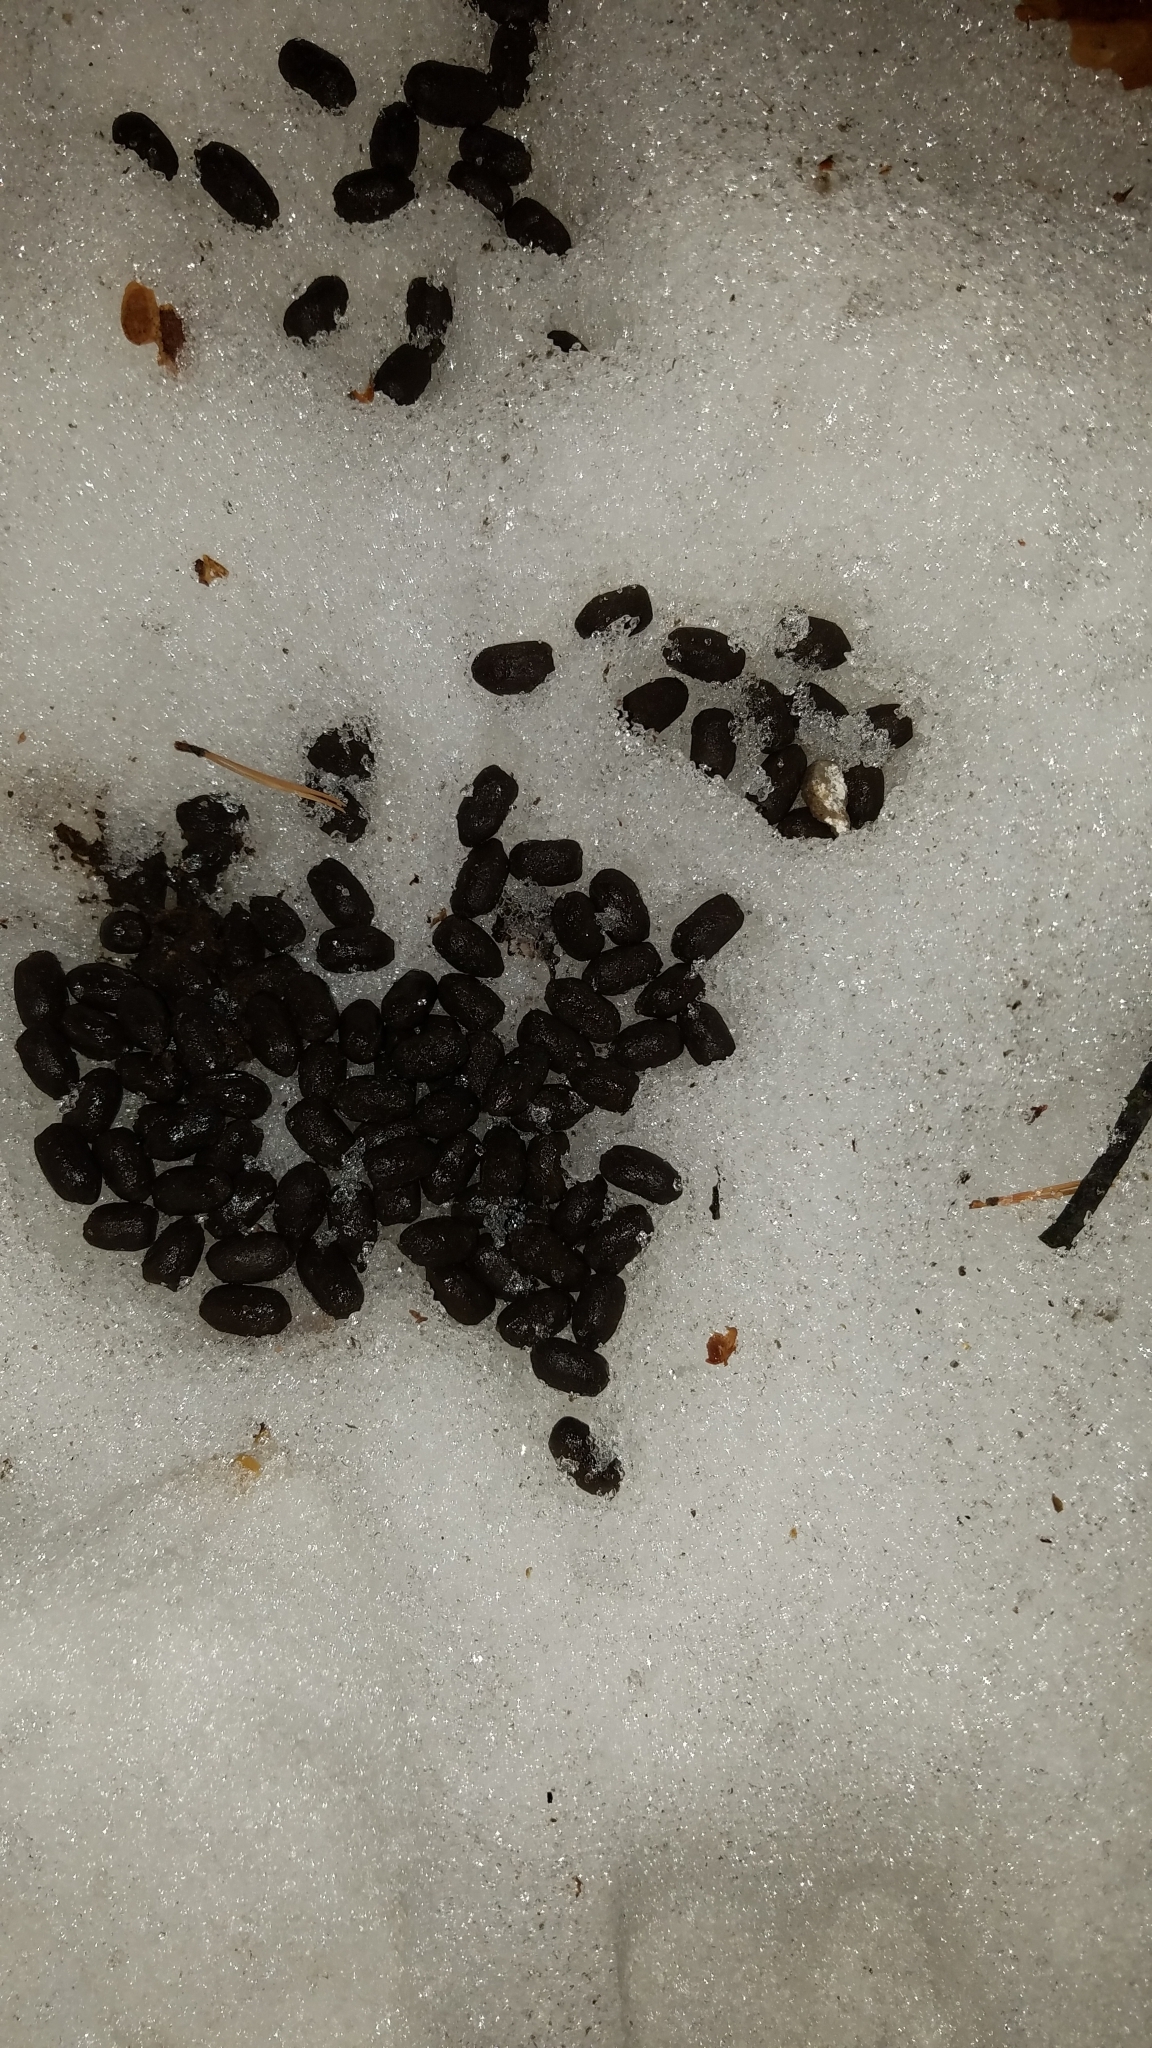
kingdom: Animalia
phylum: Chordata
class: Mammalia
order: Artiodactyla
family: Cervidae
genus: Odocoileus
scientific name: Odocoileus virginianus
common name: White-tailed deer
